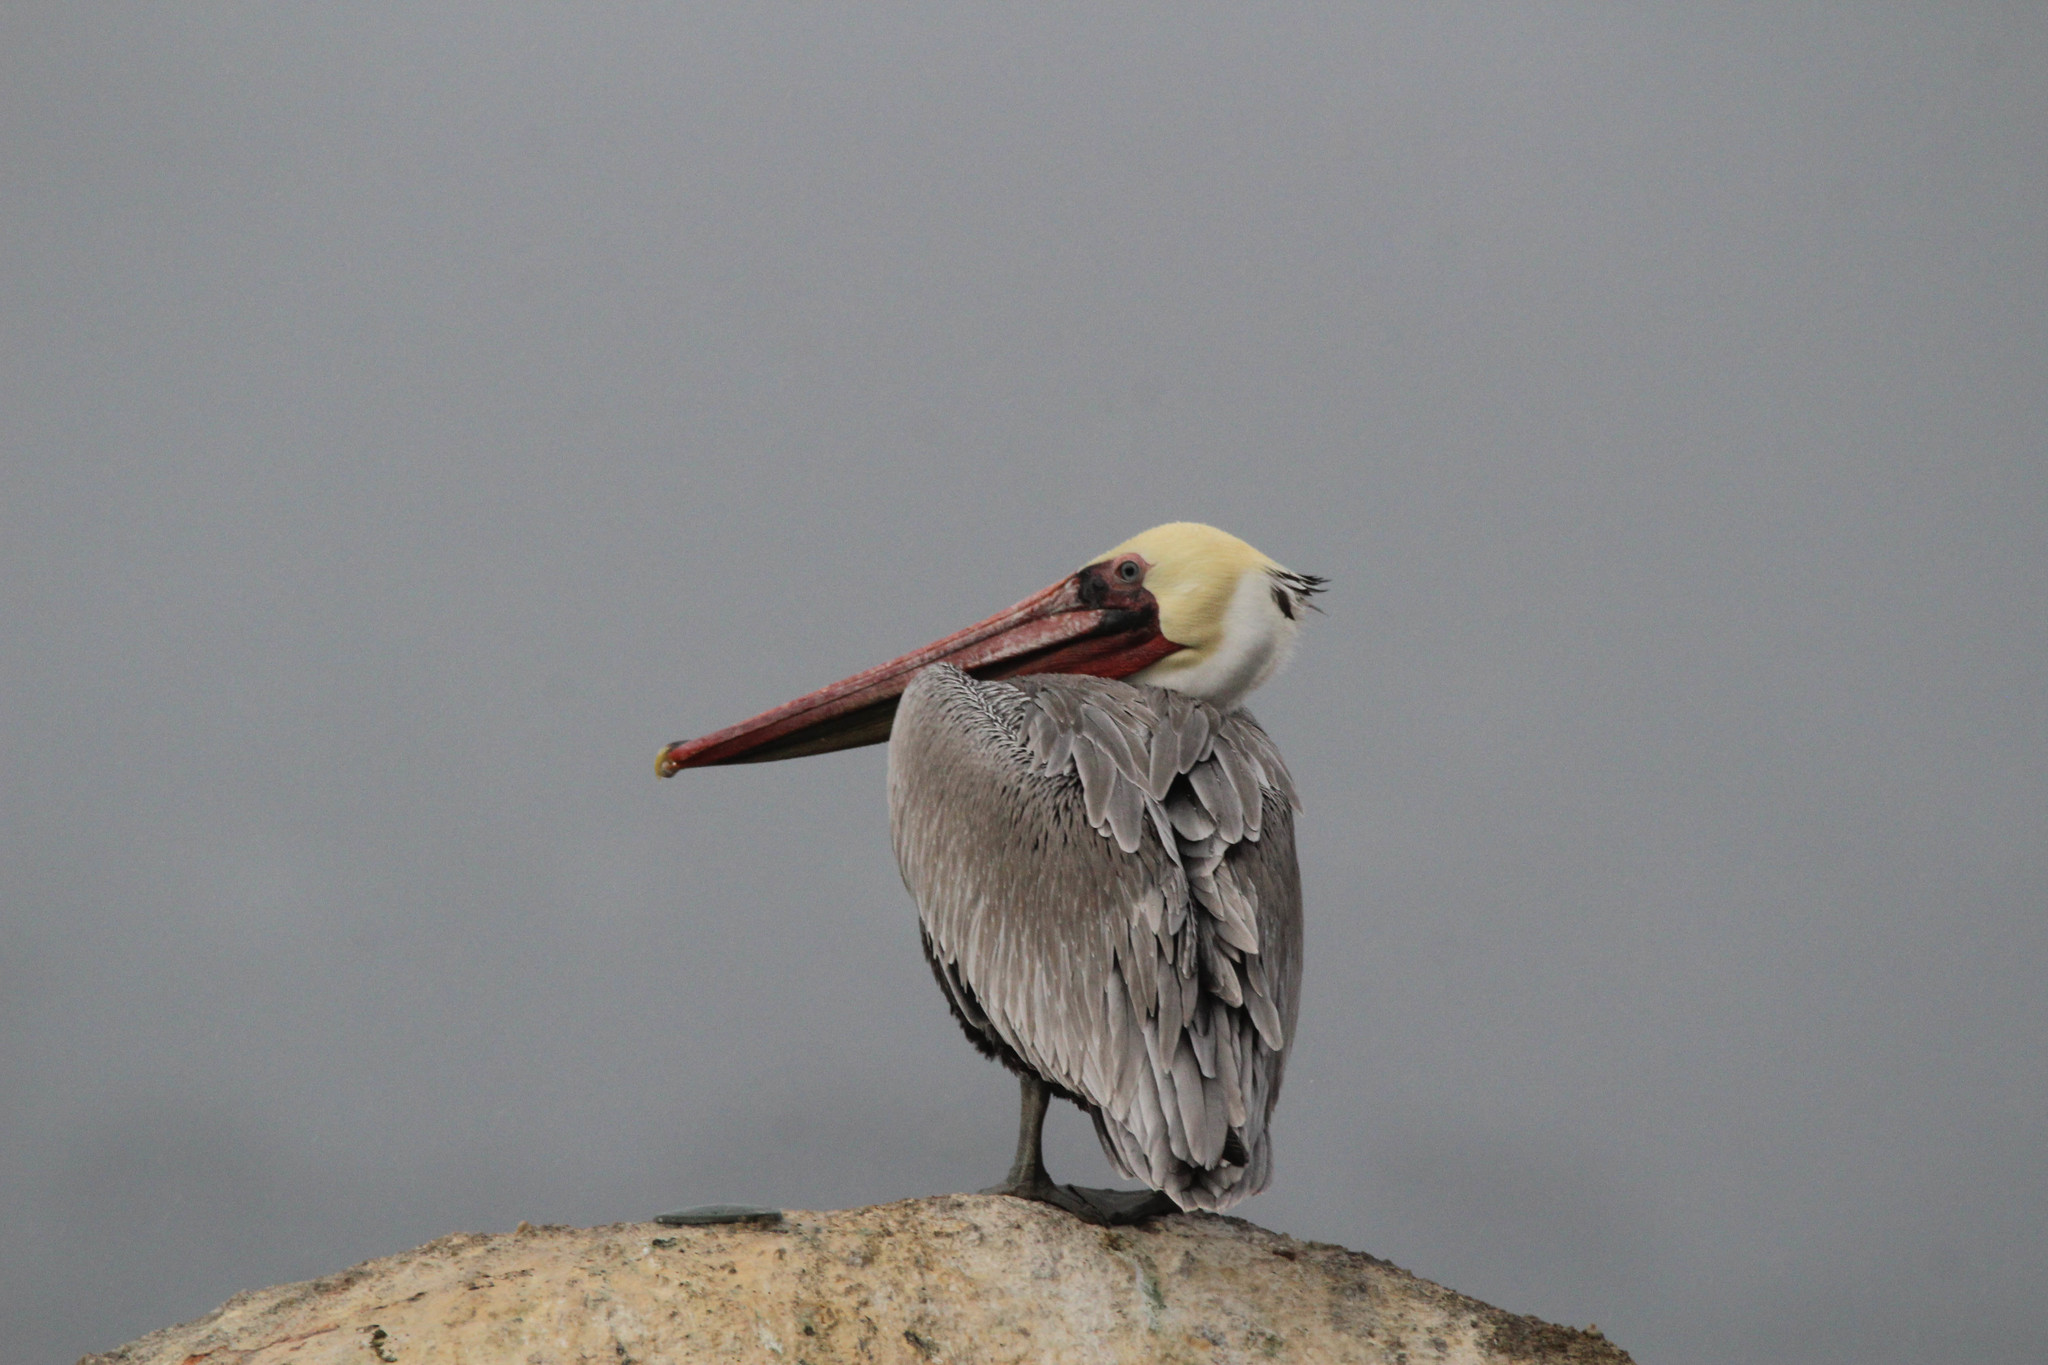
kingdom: Animalia
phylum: Chordata
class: Aves
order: Pelecaniformes
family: Pelecanidae
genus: Pelecanus
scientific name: Pelecanus occidentalis
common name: Brown pelican
